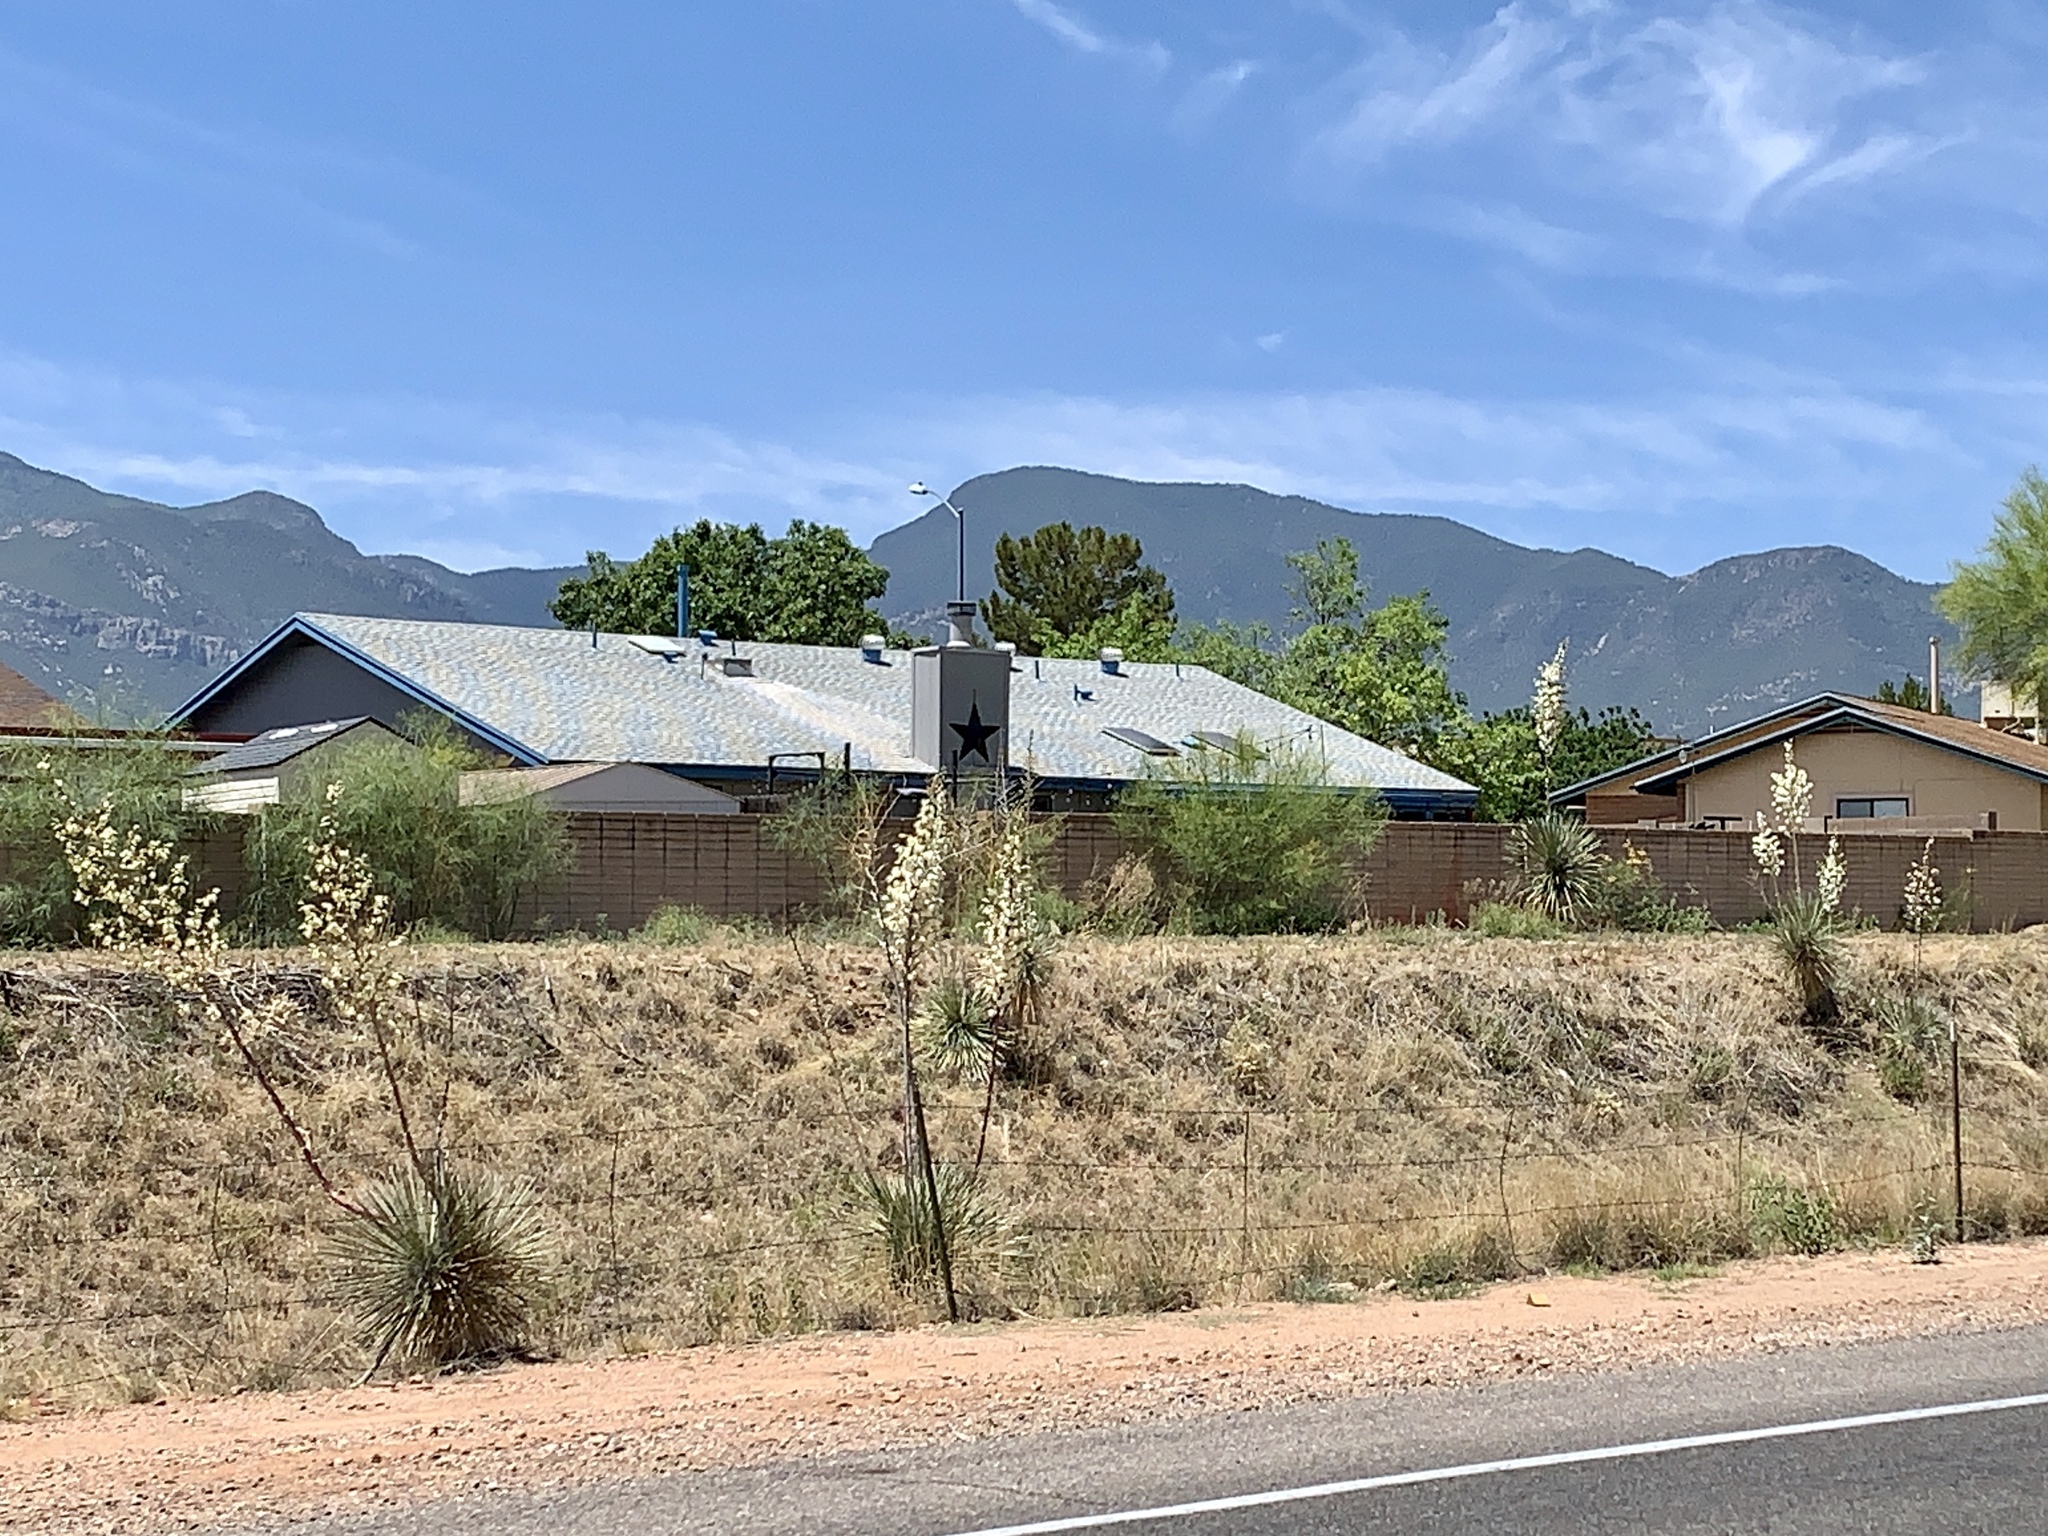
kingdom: Plantae
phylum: Tracheophyta
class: Liliopsida
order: Asparagales
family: Asparagaceae
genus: Yucca
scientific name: Yucca elata
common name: Palmella
